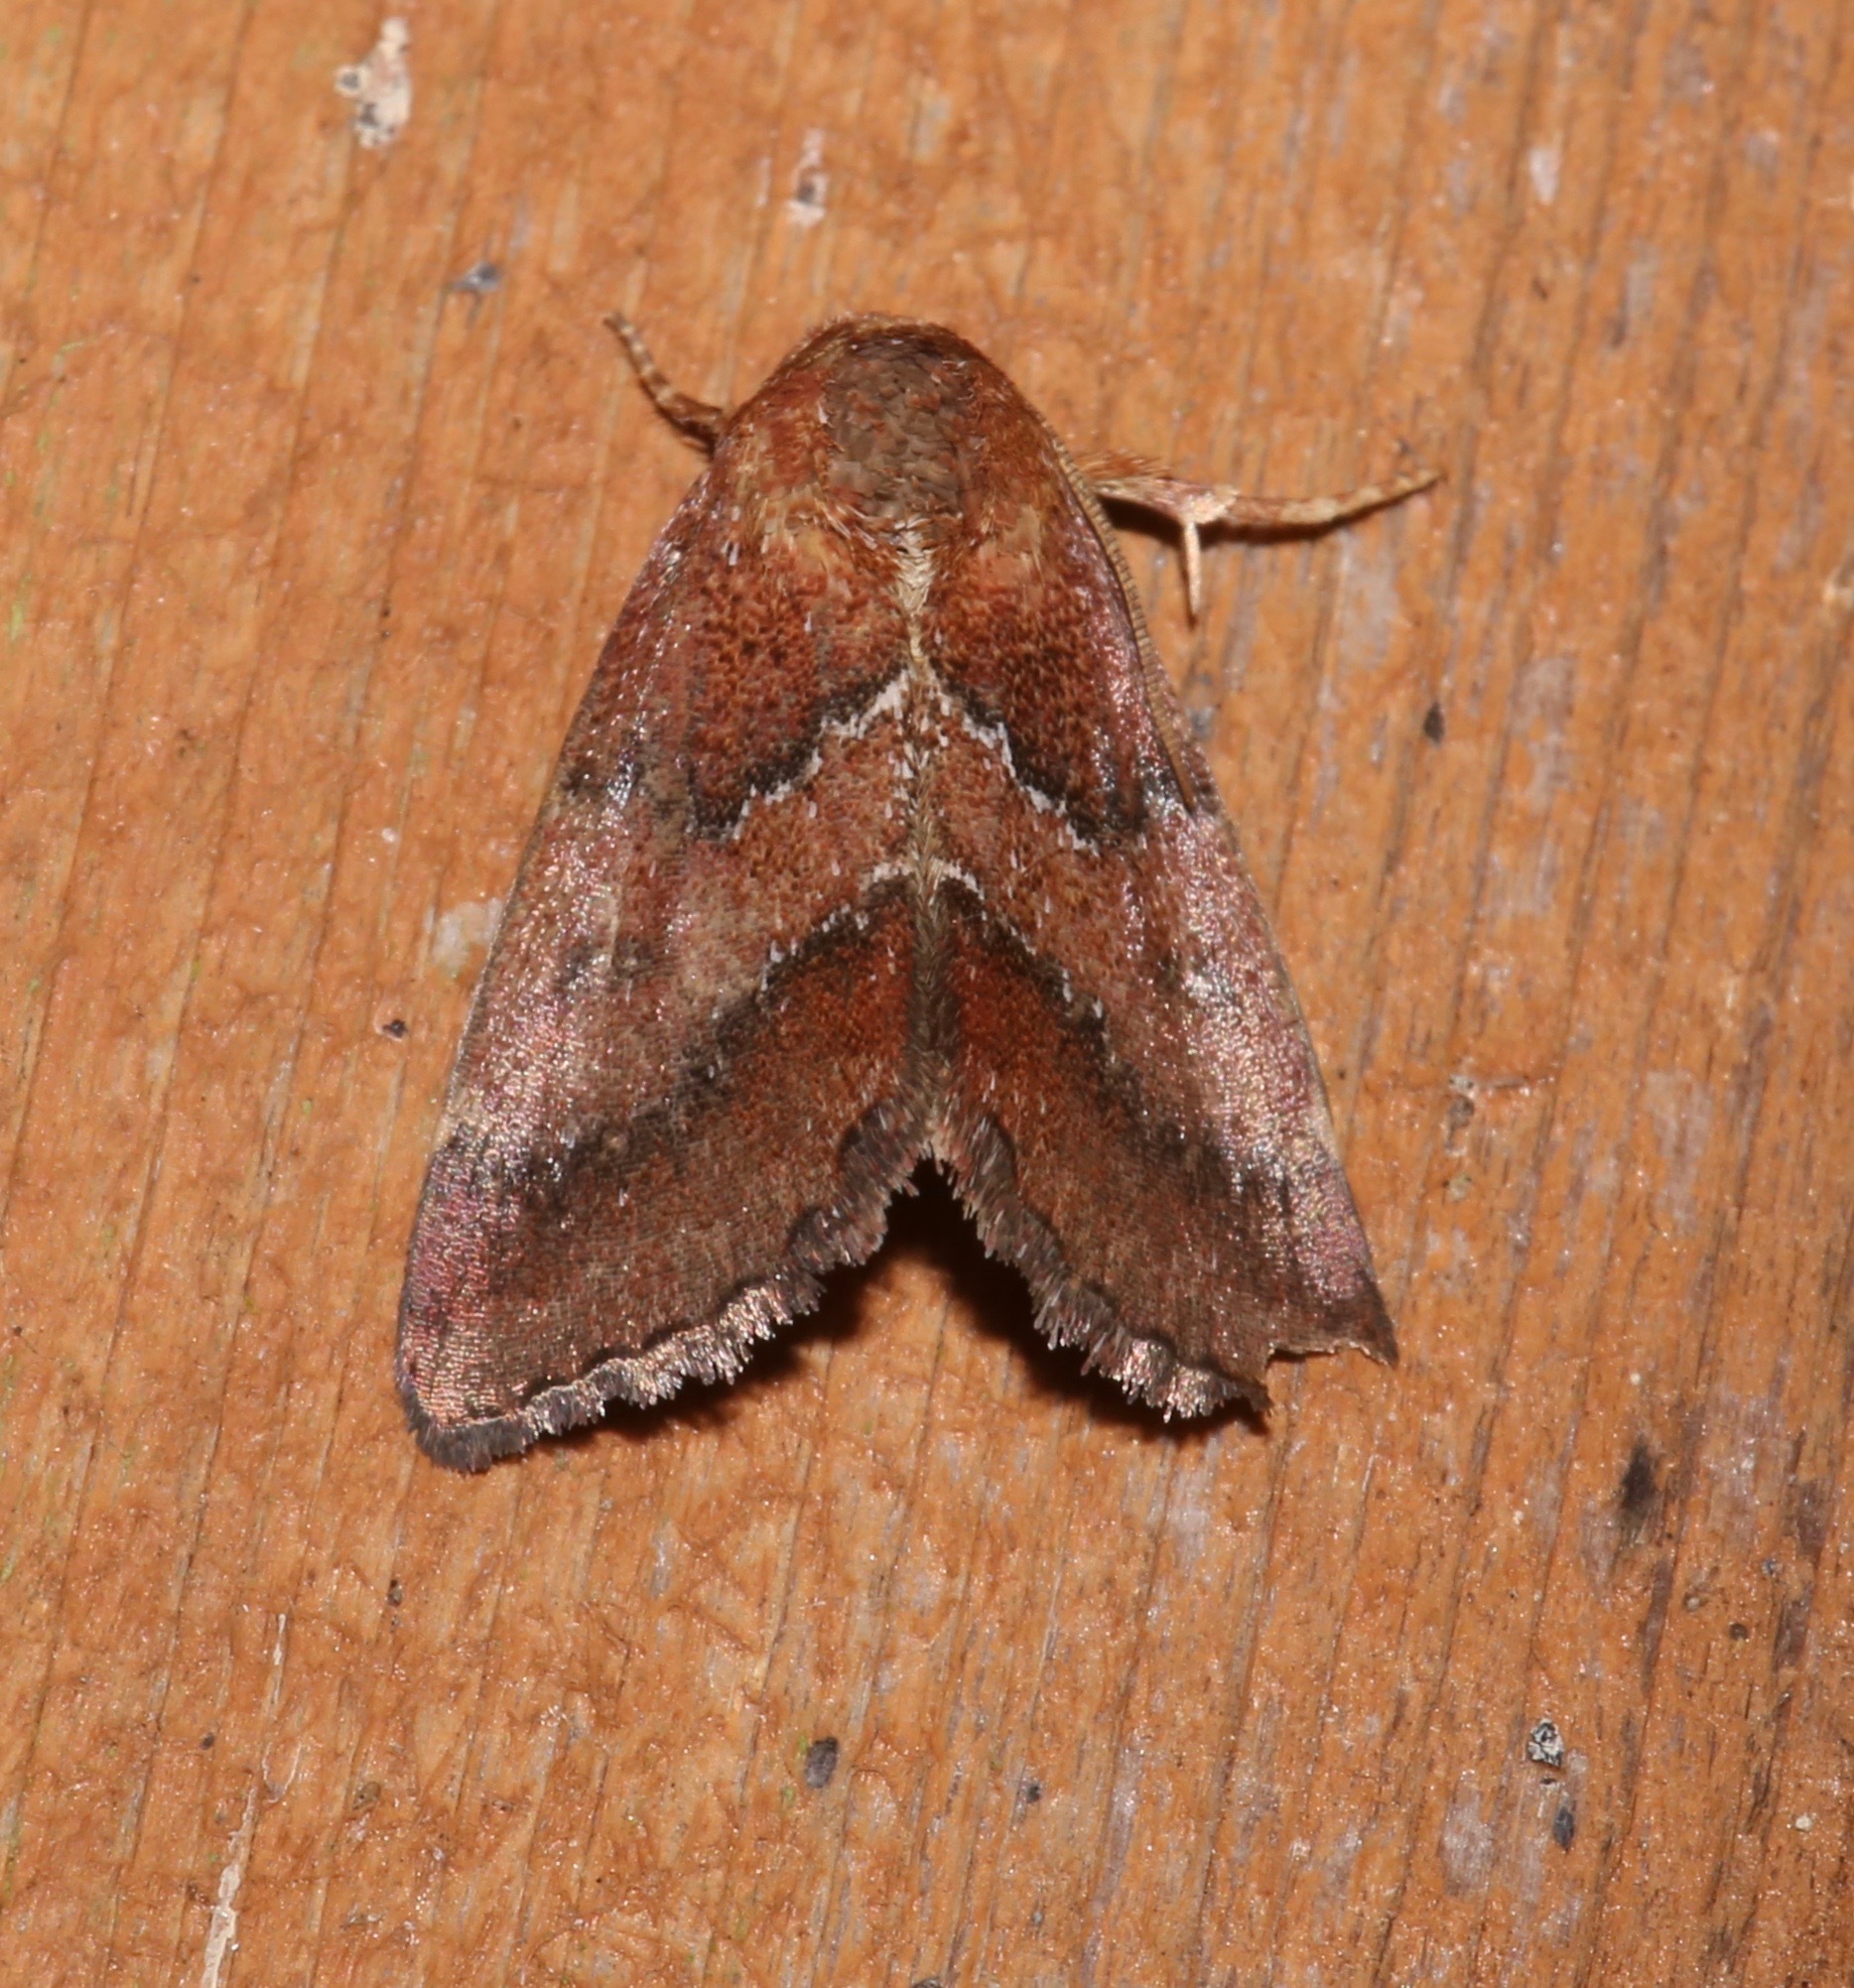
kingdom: Animalia
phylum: Arthropoda
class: Insecta
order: Lepidoptera
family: Noctuidae
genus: Schinia
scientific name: Schinia saturata
